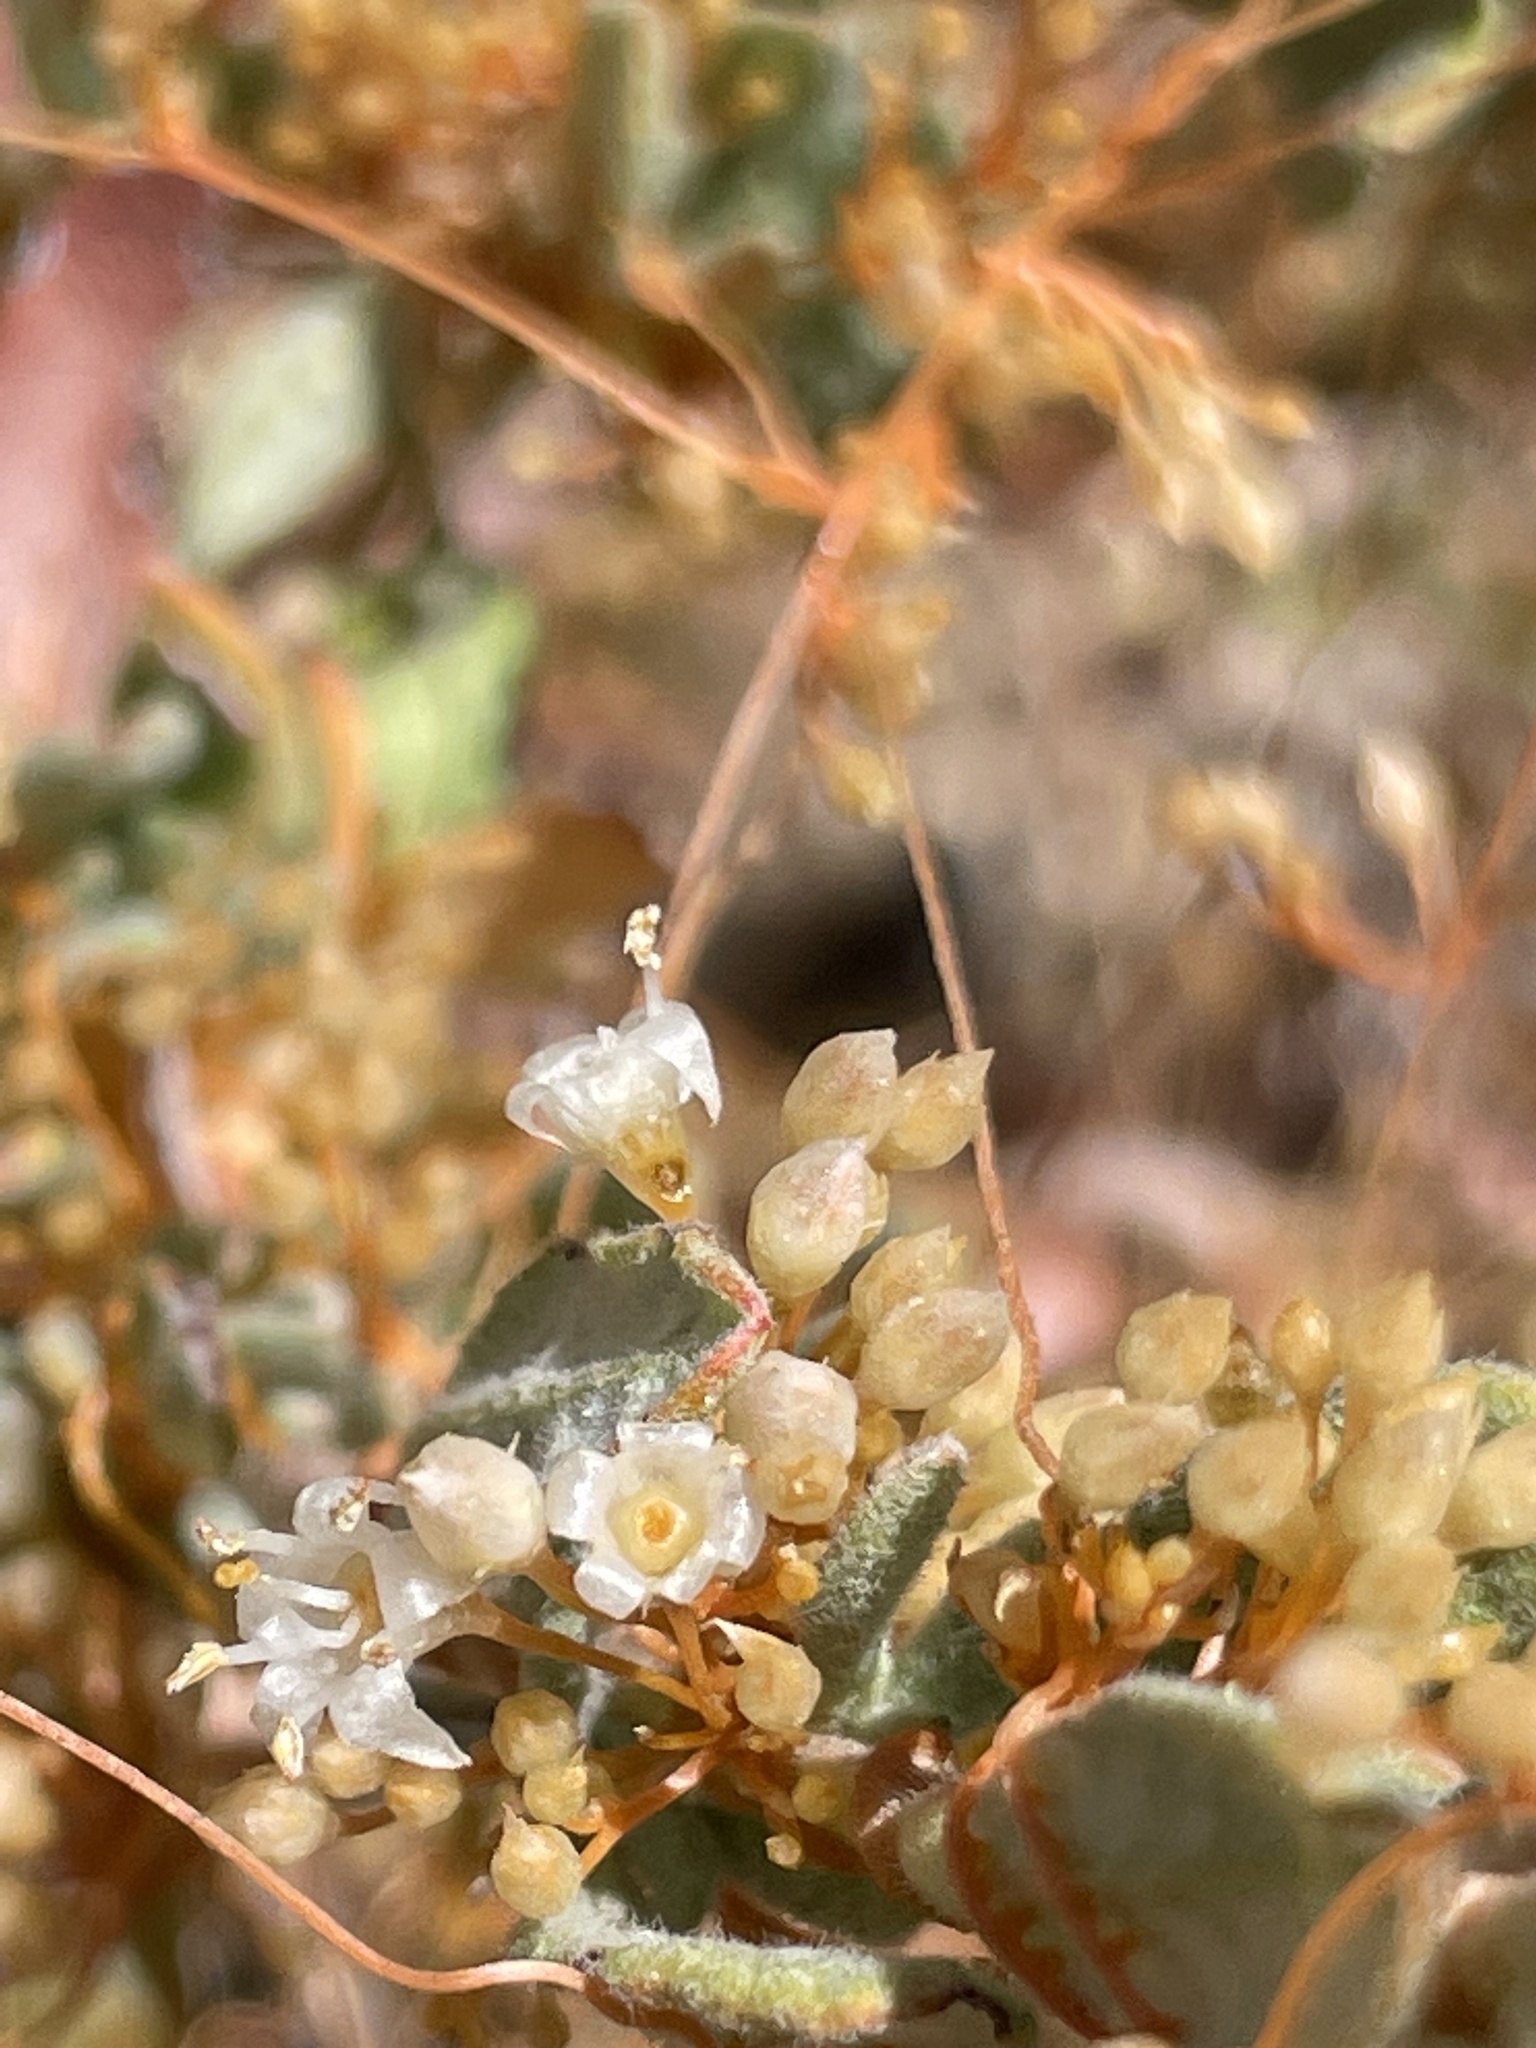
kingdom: Plantae
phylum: Tracheophyta
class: Magnoliopsida
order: Solanales
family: Convolvulaceae
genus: Cuscuta
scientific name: Cuscuta californica
